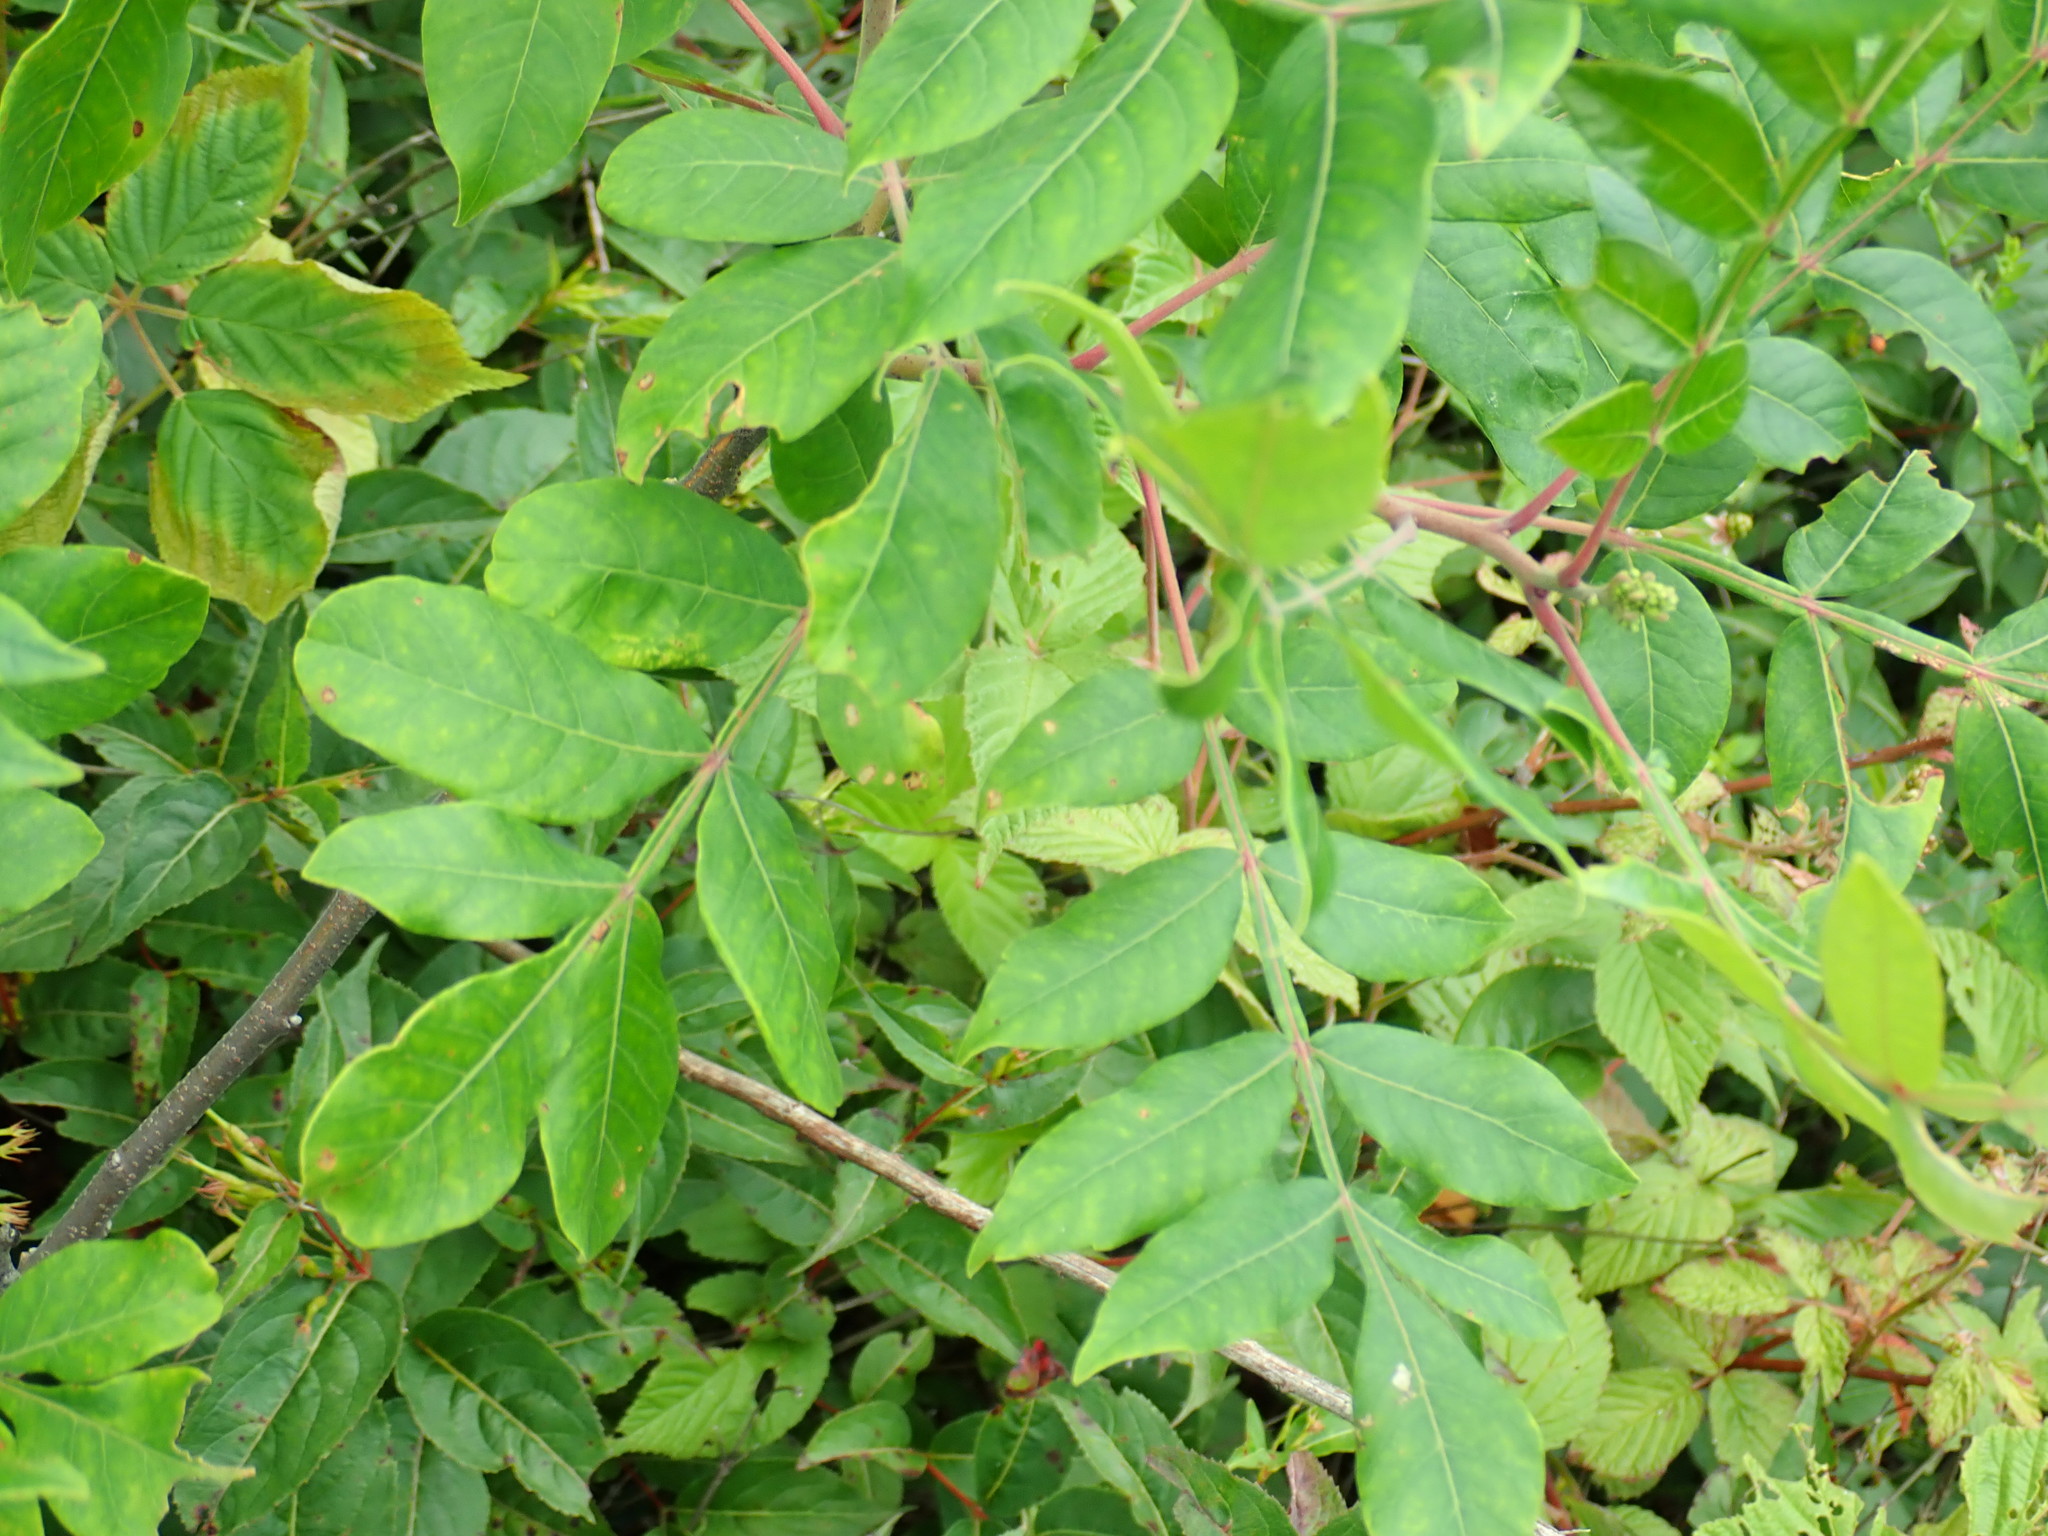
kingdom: Plantae
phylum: Tracheophyta
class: Magnoliopsida
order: Sapindales
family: Anacardiaceae
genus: Rhus
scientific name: Rhus copallina
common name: Shining sumac
